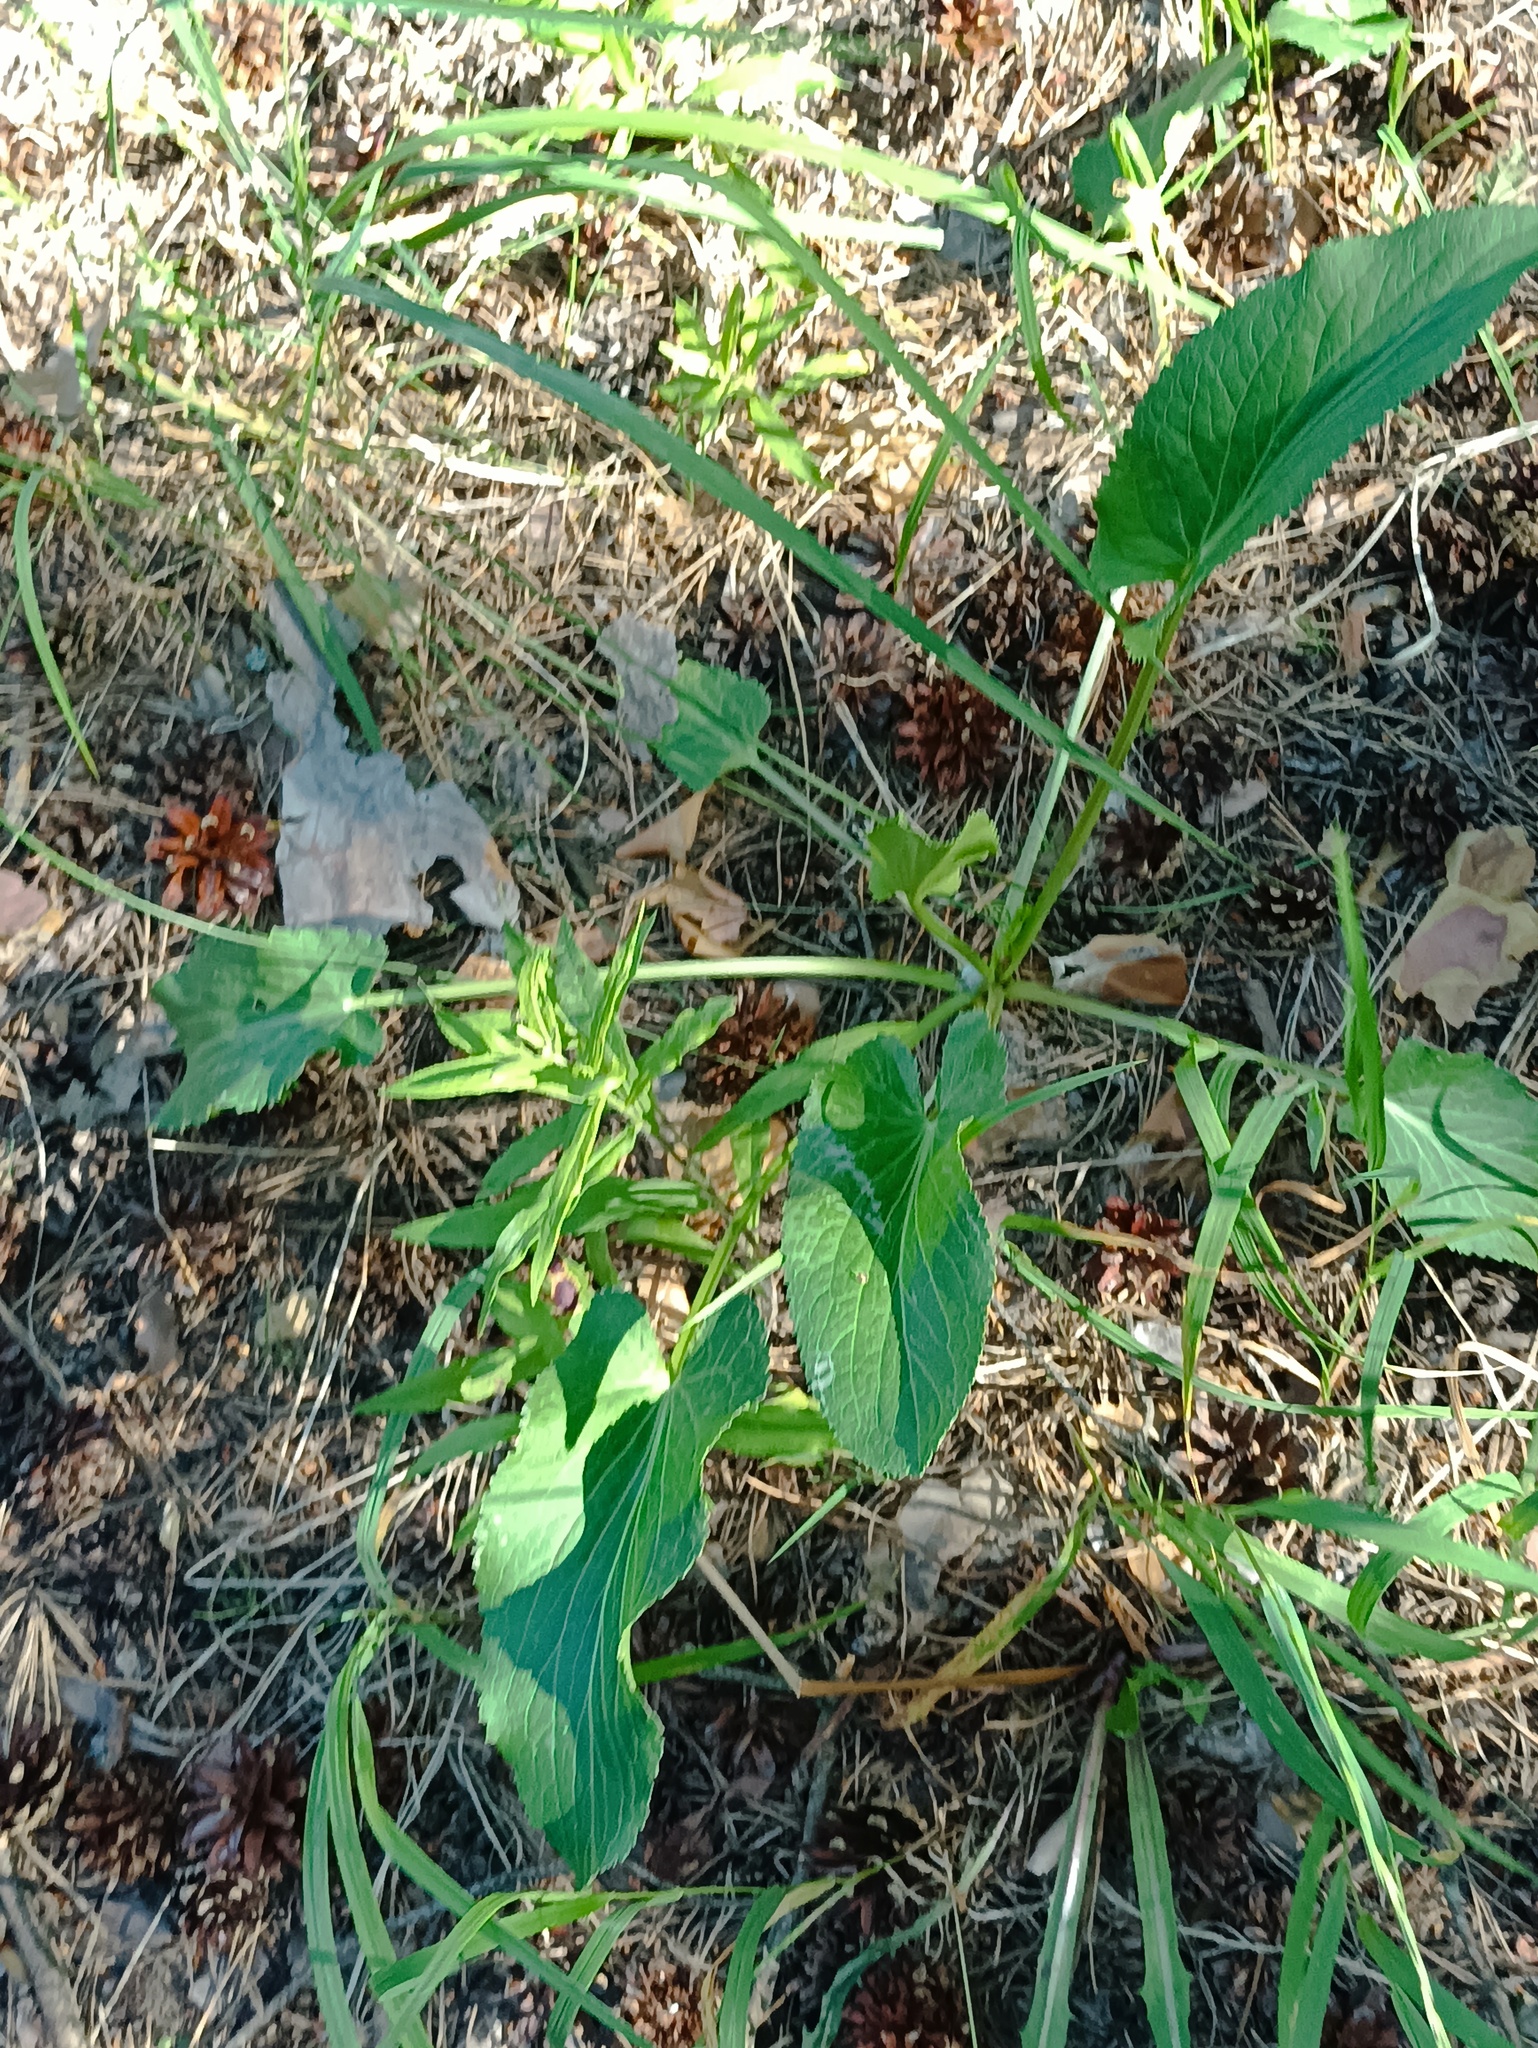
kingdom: Plantae
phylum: Tracheophyta
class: Magnoliopsida
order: Apiales
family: Apiaceae
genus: Eryngium
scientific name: Eryngium planum
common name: Blue eryngo
